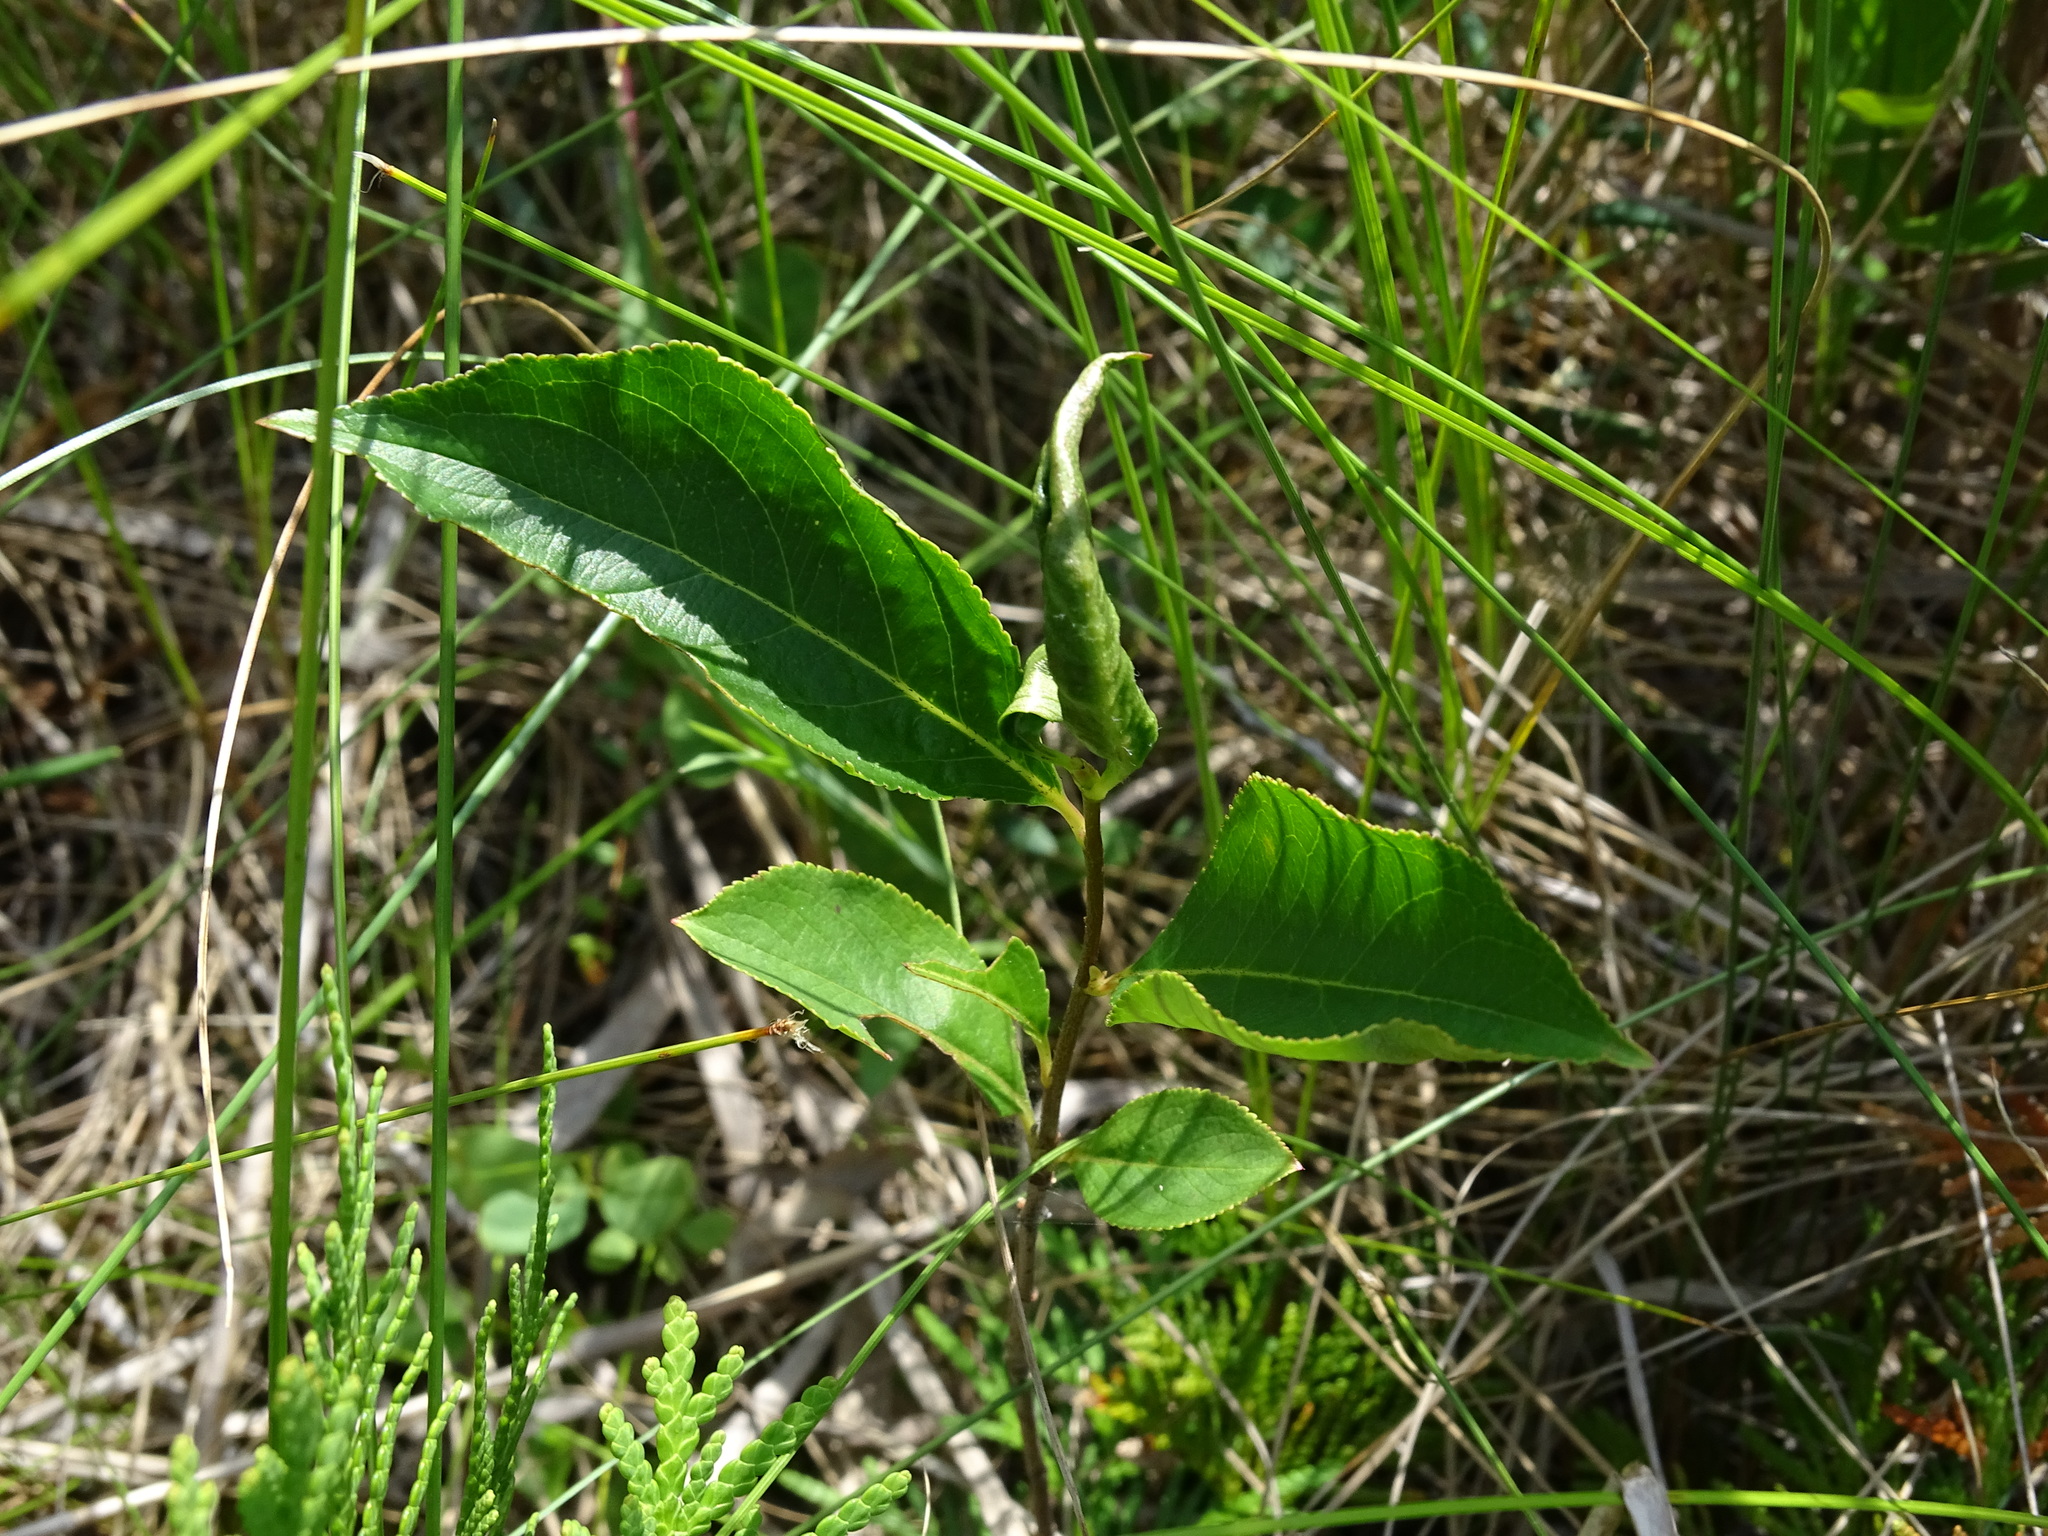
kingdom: Plantae
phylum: Tracheophyta
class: Magnoliopsida
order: Rosales
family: Rosaceae
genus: Aronia
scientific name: Aronia melanocarpa
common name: Black chokeberry
